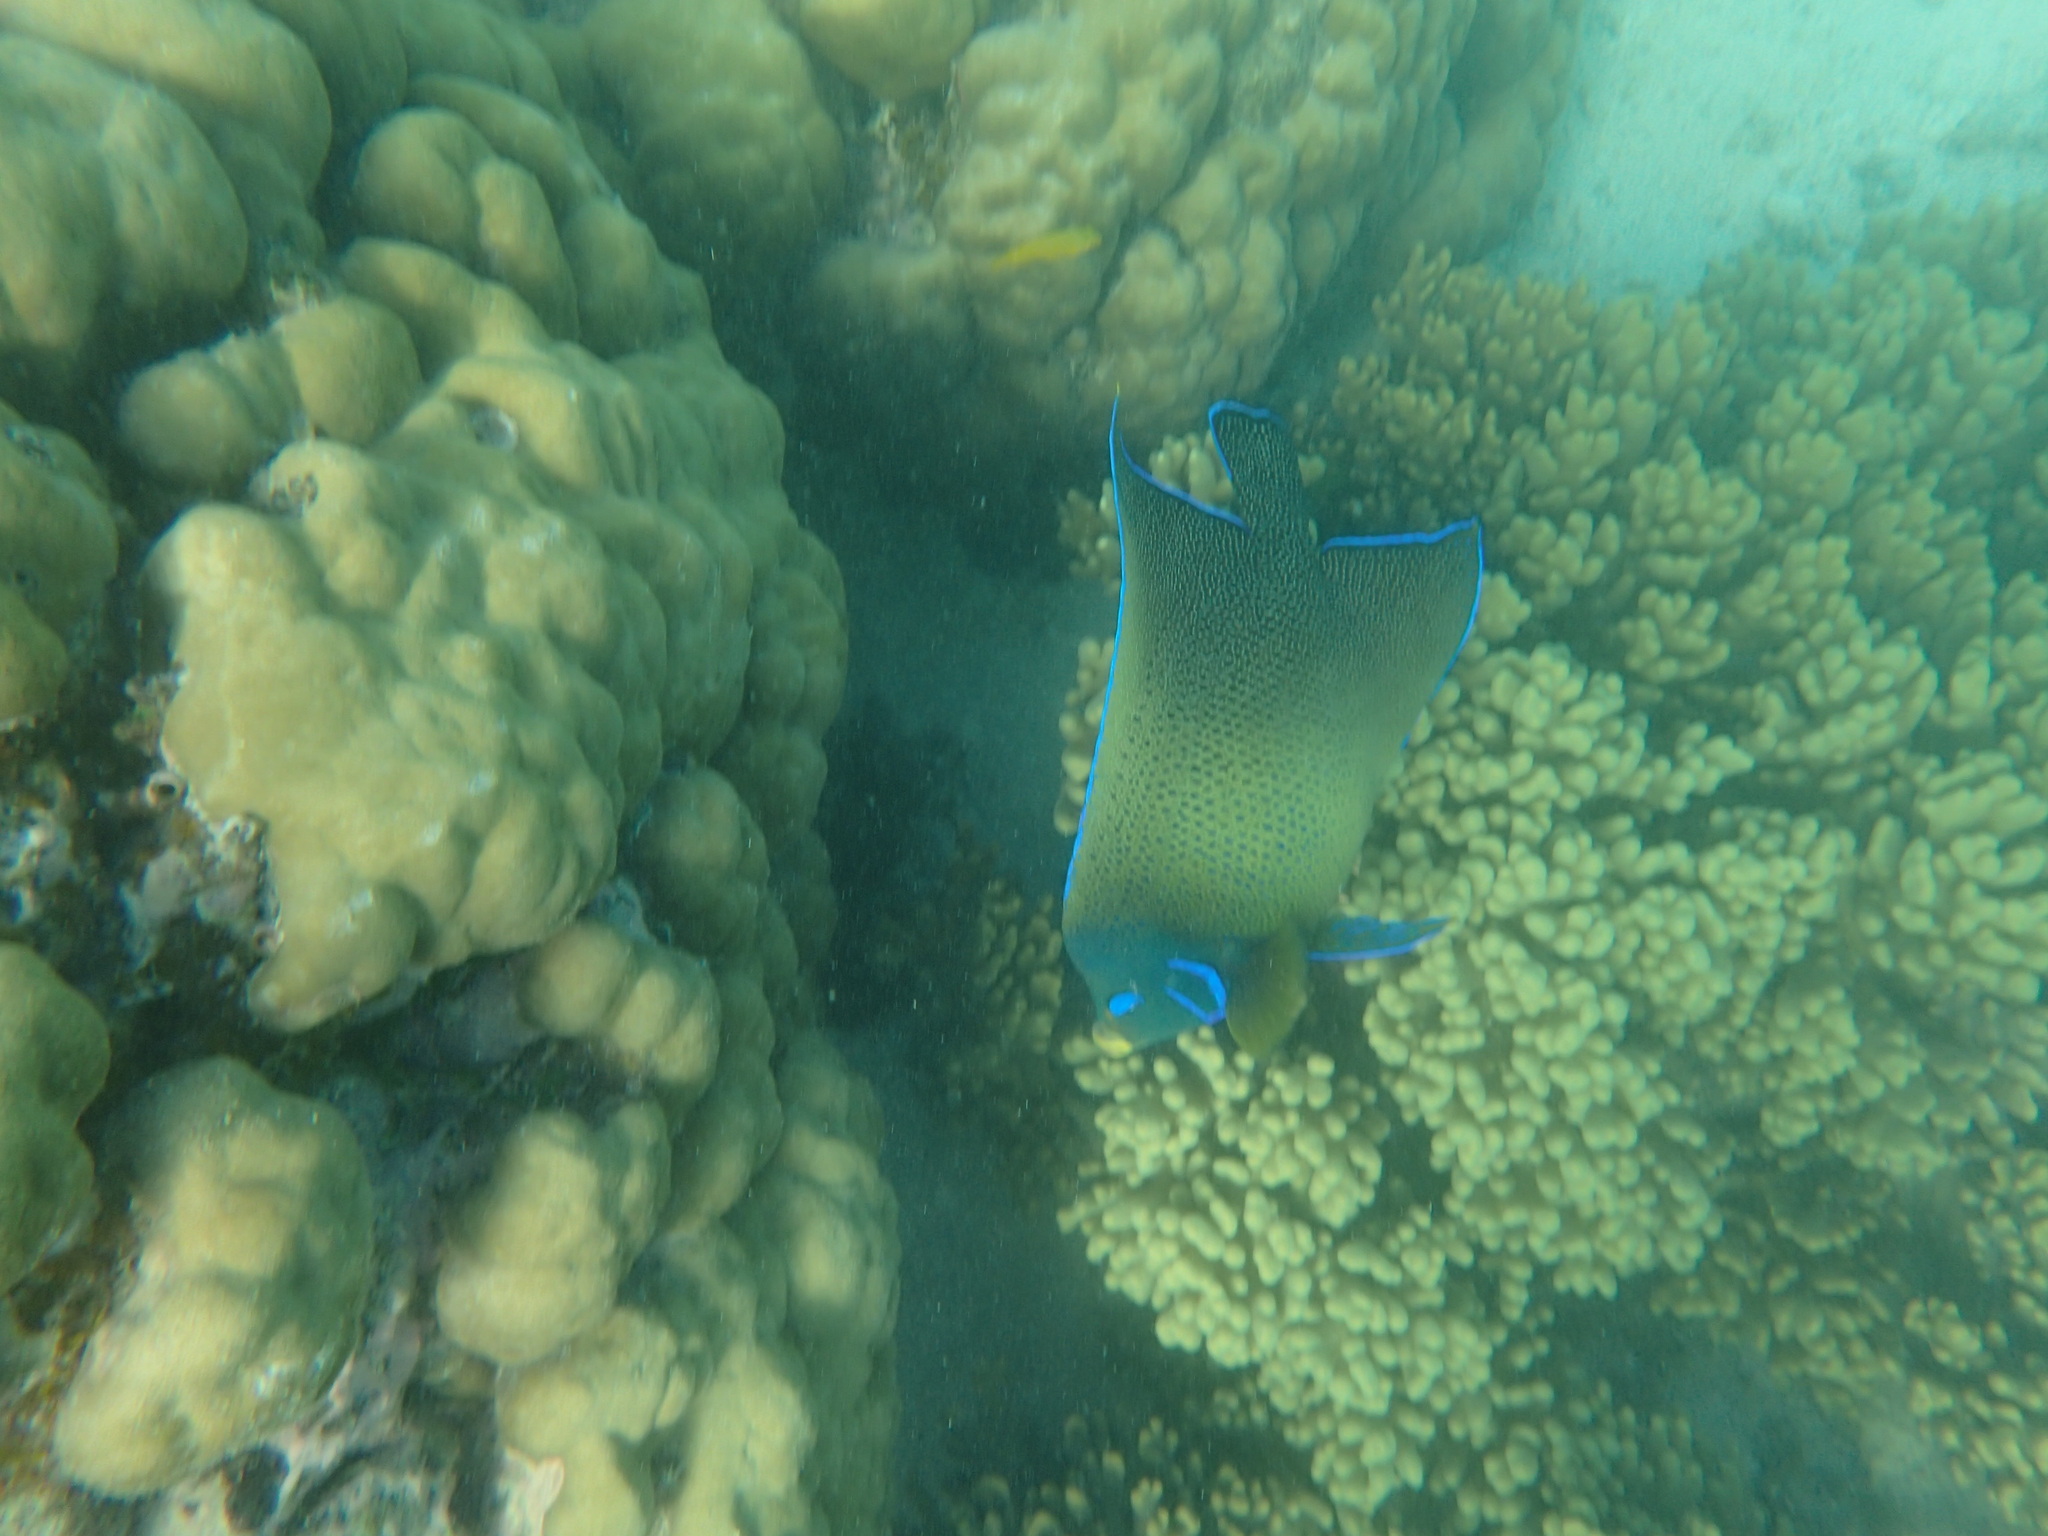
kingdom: Animalia
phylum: Chordata
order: Perciformes
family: Pomacanthidae
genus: Pomacanthus
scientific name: Pomacanthus semicirculatus
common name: Semicircle angelfish
